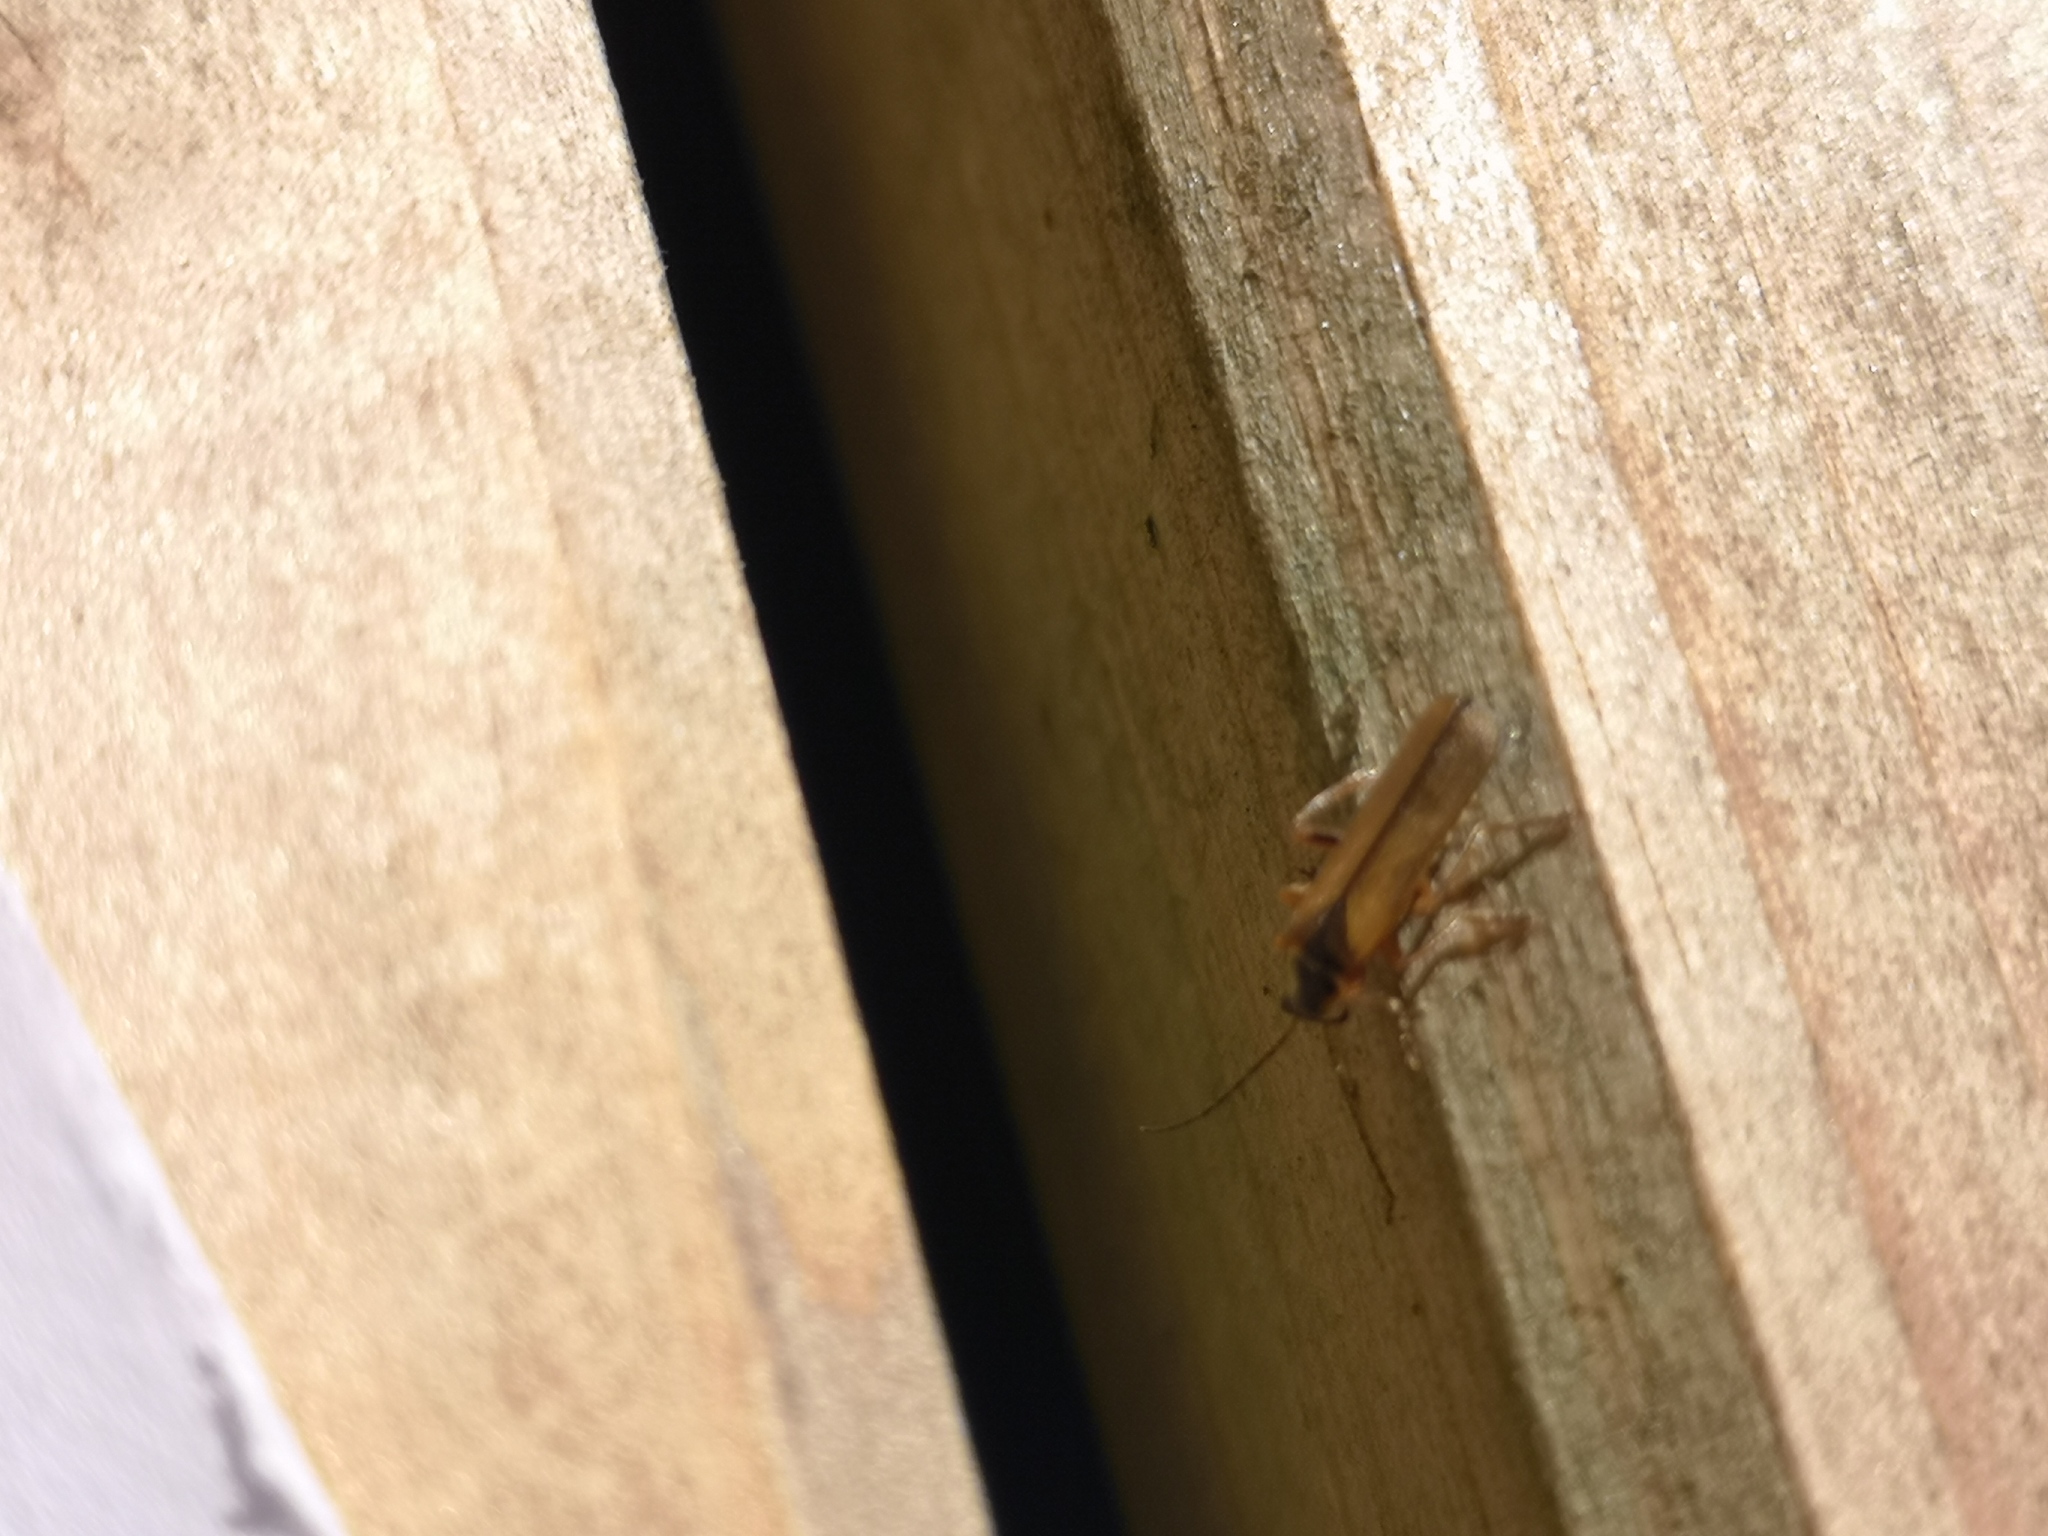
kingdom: Animalia
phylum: Arthropoda
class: Insecta
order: Coleoptera
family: Cantharidae
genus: Cantharis
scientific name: Cantharis decipiens
